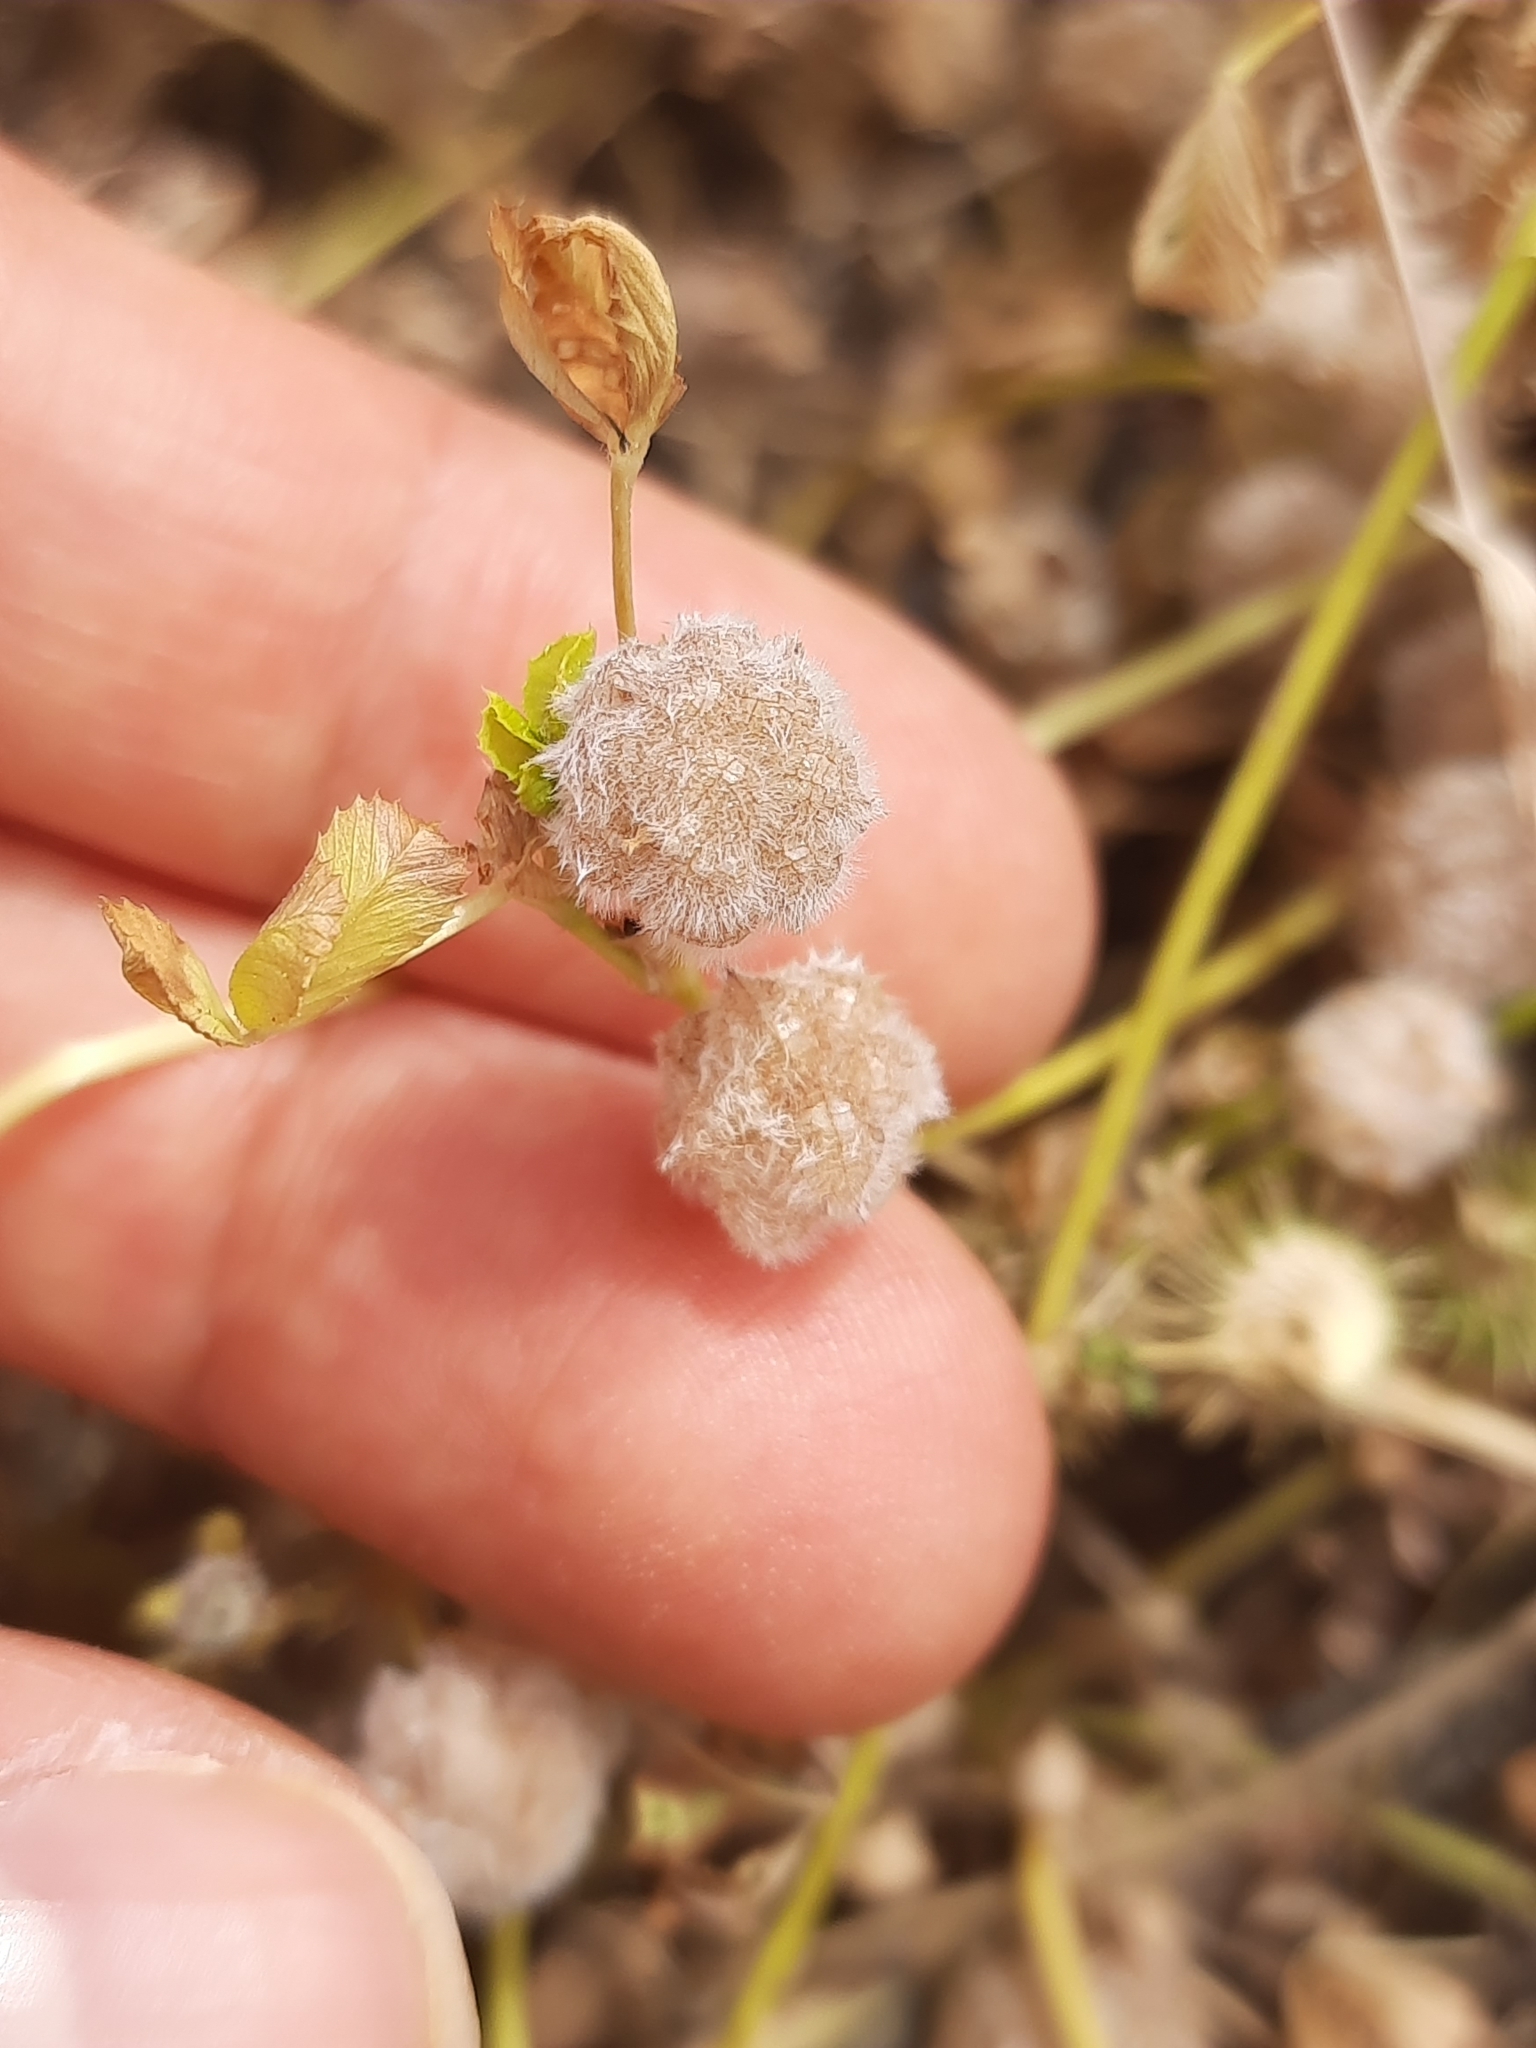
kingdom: Plantae
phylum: Tracheophyta
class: Magnoliopsida
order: Fabales
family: Fabaceae
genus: Trifolium
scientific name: Trifolium tomentosum
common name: Woolly clover
